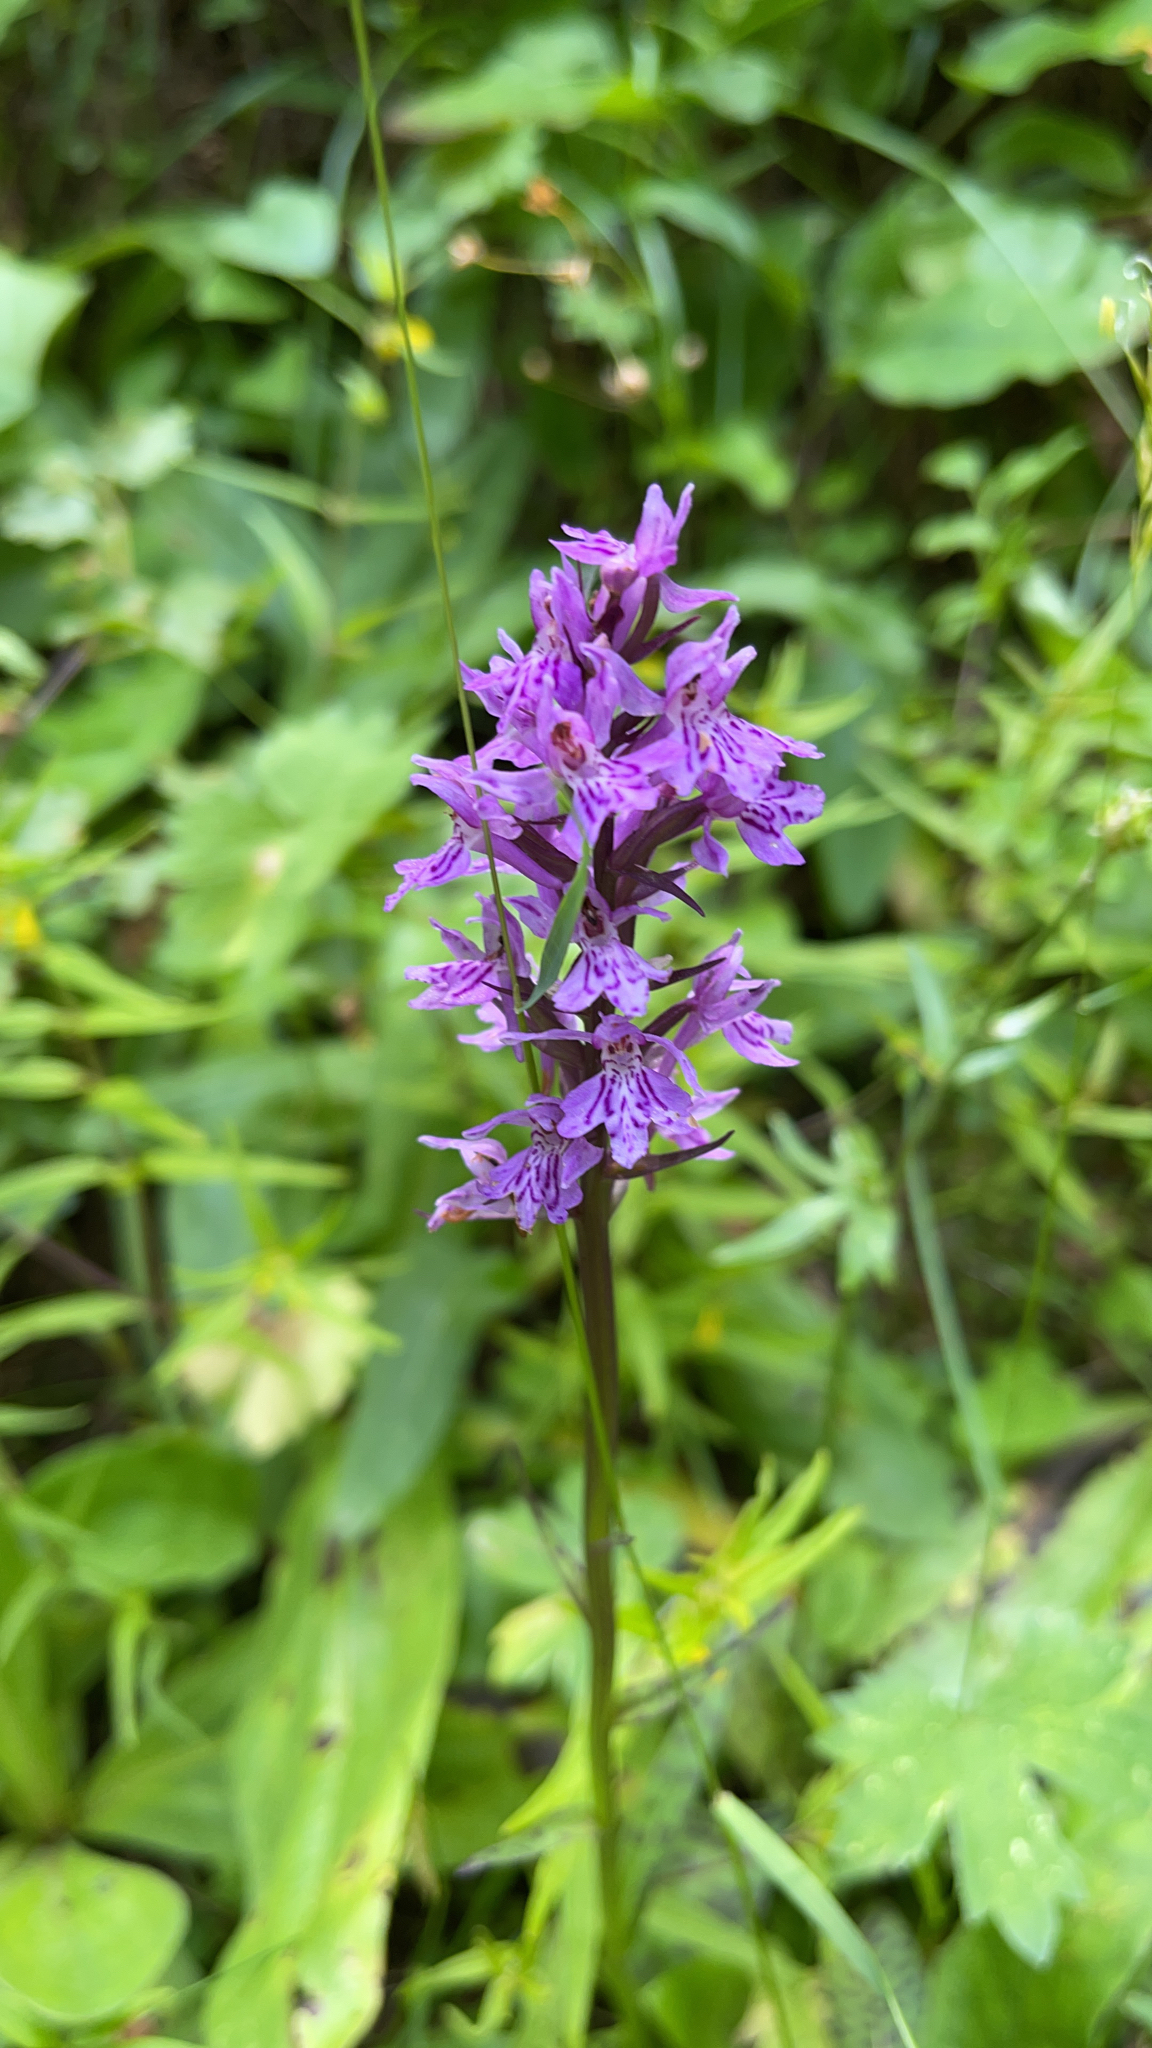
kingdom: Plantae
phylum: Tracheophyta
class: Liliopsida
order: Asparagales
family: Orchidaceae
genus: Dactylorhiza
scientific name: Dactylorhiza maculata
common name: Heath spotted-orchid
